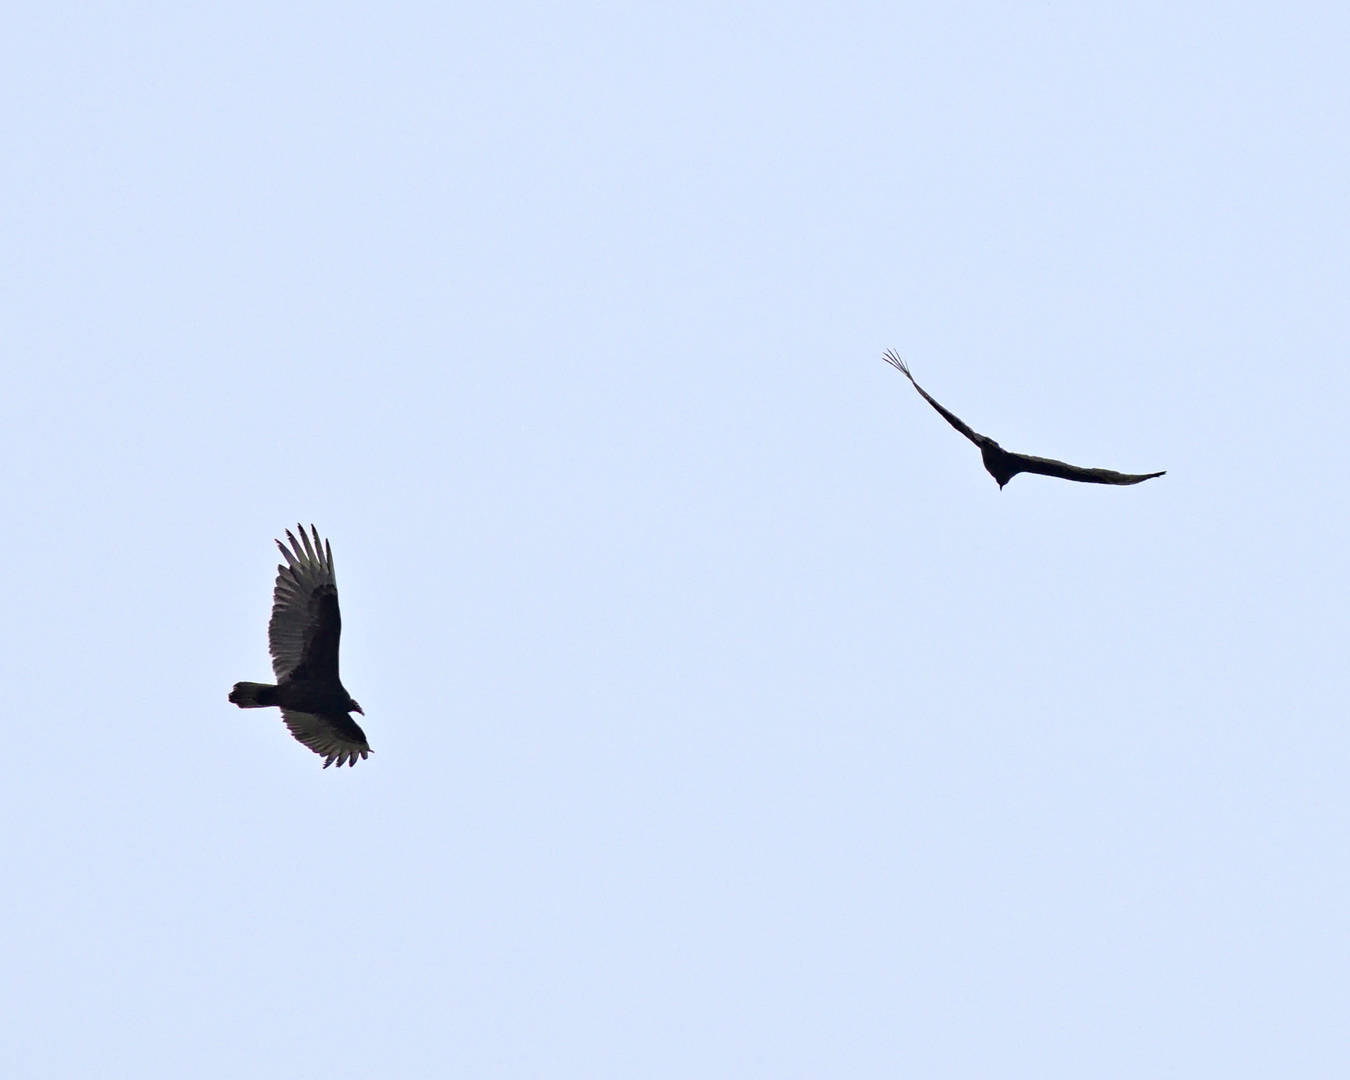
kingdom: Animalia
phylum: Chordata
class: Aves
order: Accipitriformes
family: Cathartidae
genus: Cathartes
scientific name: Cathartes aura
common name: Turkey vulture
